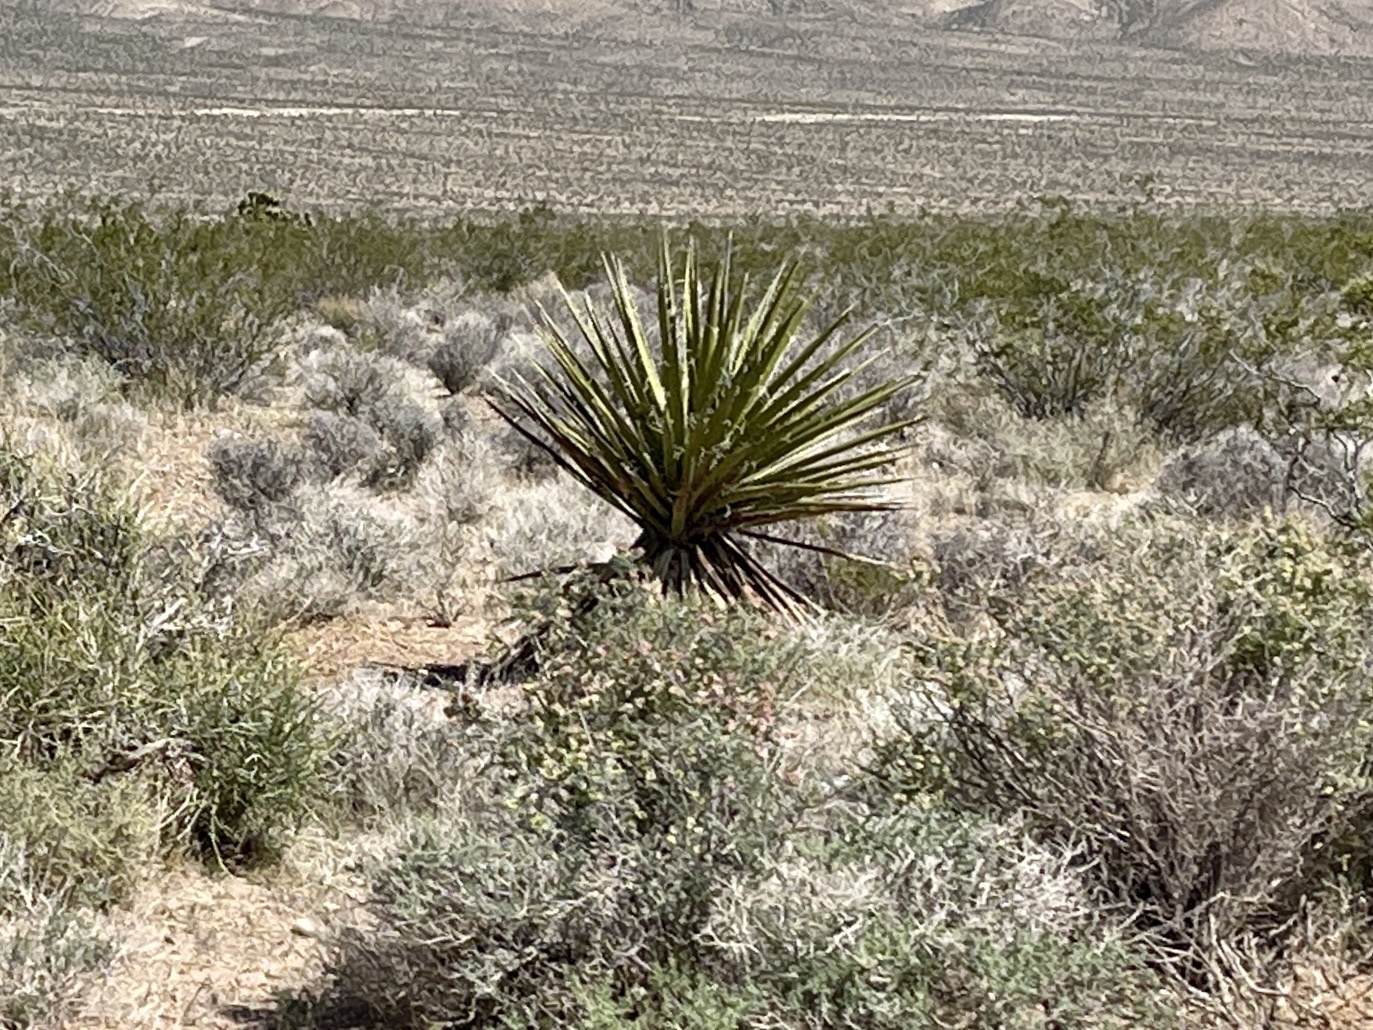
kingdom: Plantae
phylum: Tracheophyta
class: Liliopsida
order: Asparagales
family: Asparagaceae
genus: Yucca
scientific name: Yucca schidigera
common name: Mojave yucca
